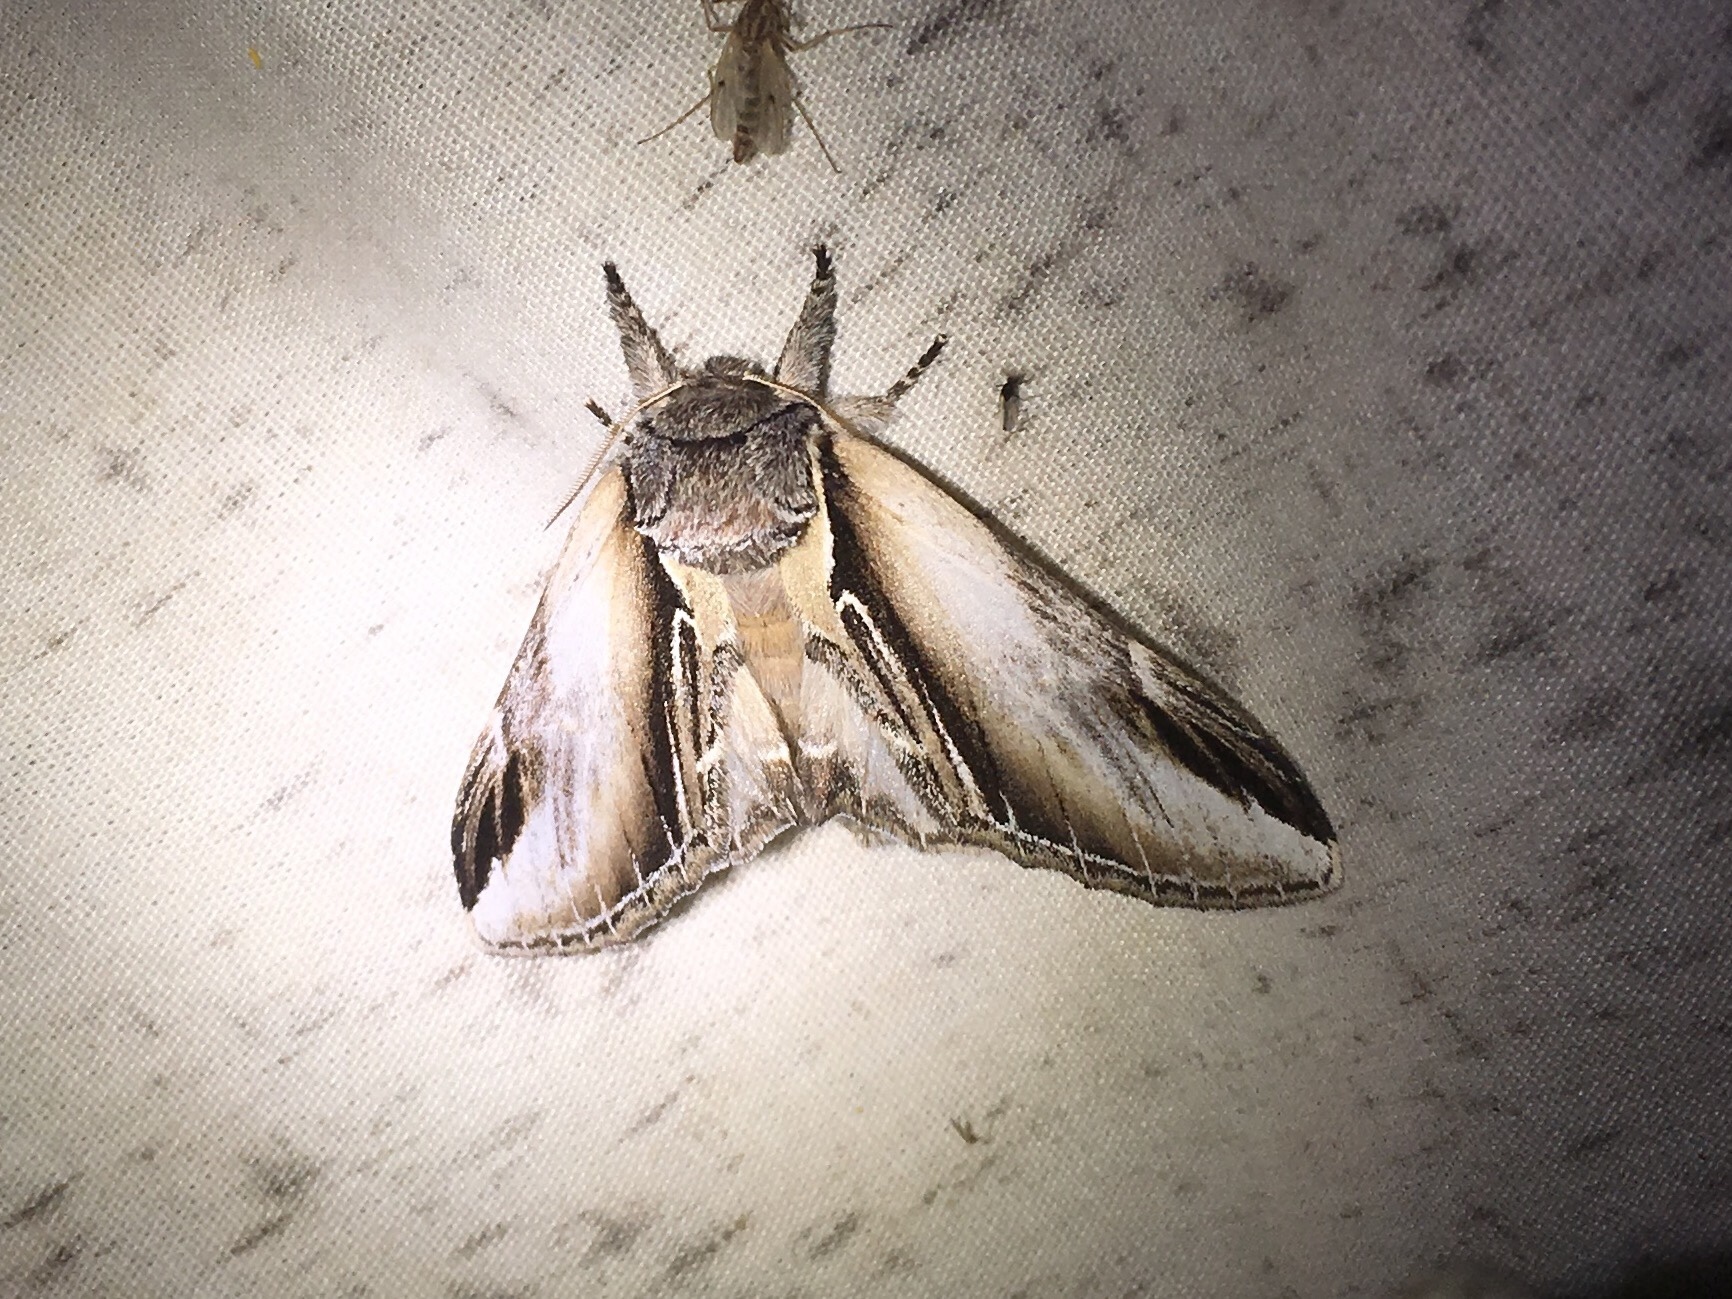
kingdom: Animalia
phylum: Arthropoda
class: Insecta
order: Lepidoptera
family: Notodontidae
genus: Pheosia
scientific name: Pheosia rimosa
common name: Black-rimmed prominent
